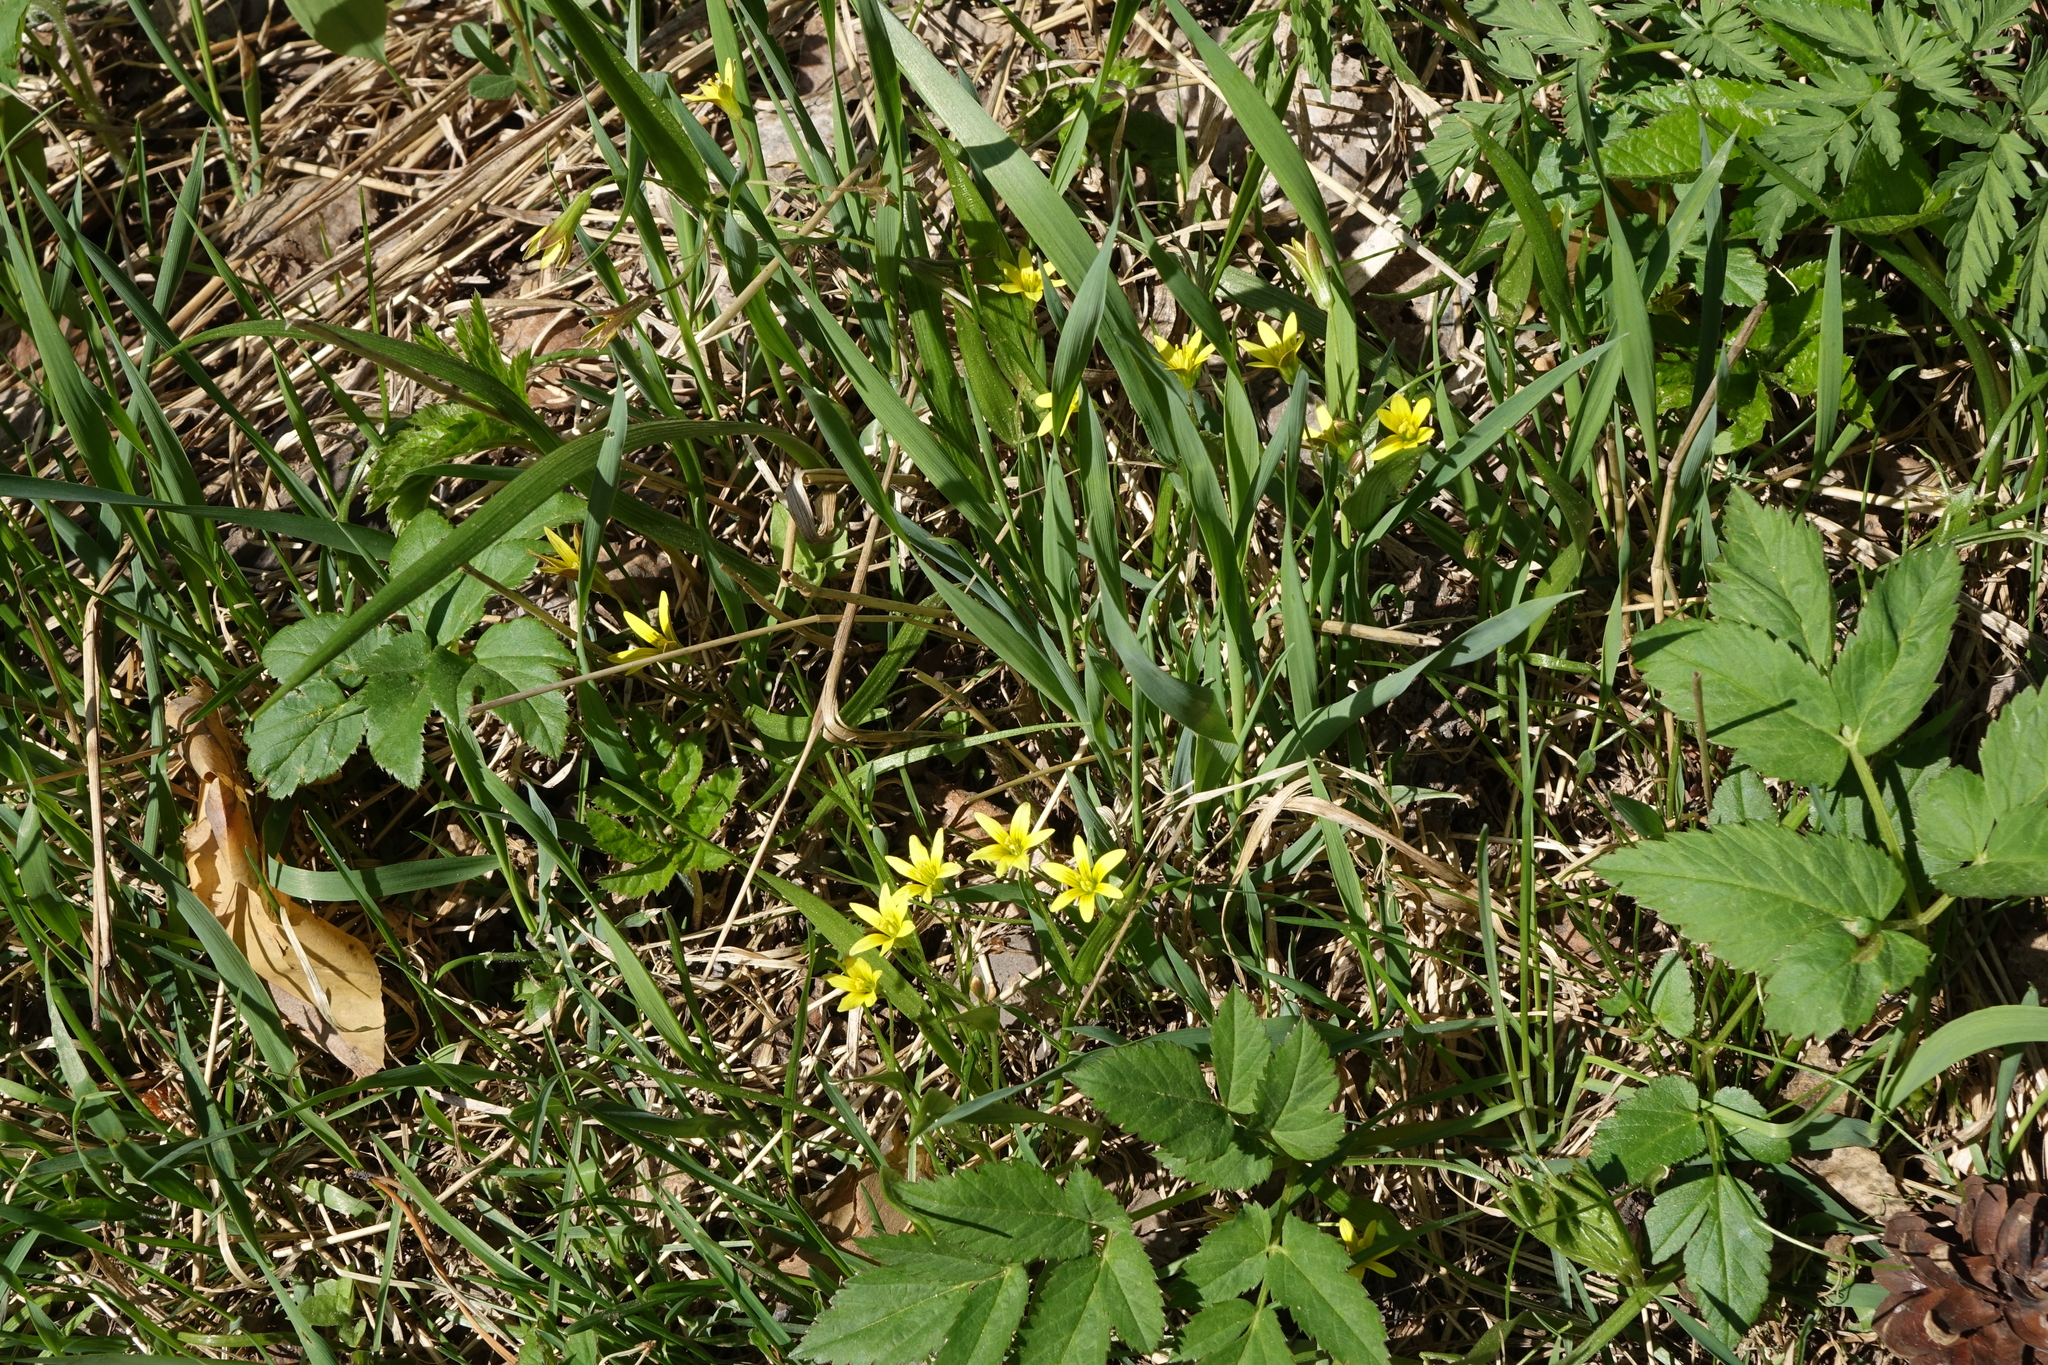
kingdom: Plantae
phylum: Tracheophyta
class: Liliopsida
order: Liliales
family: Liliaceae
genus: Gagea
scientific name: Gagea granulosa
